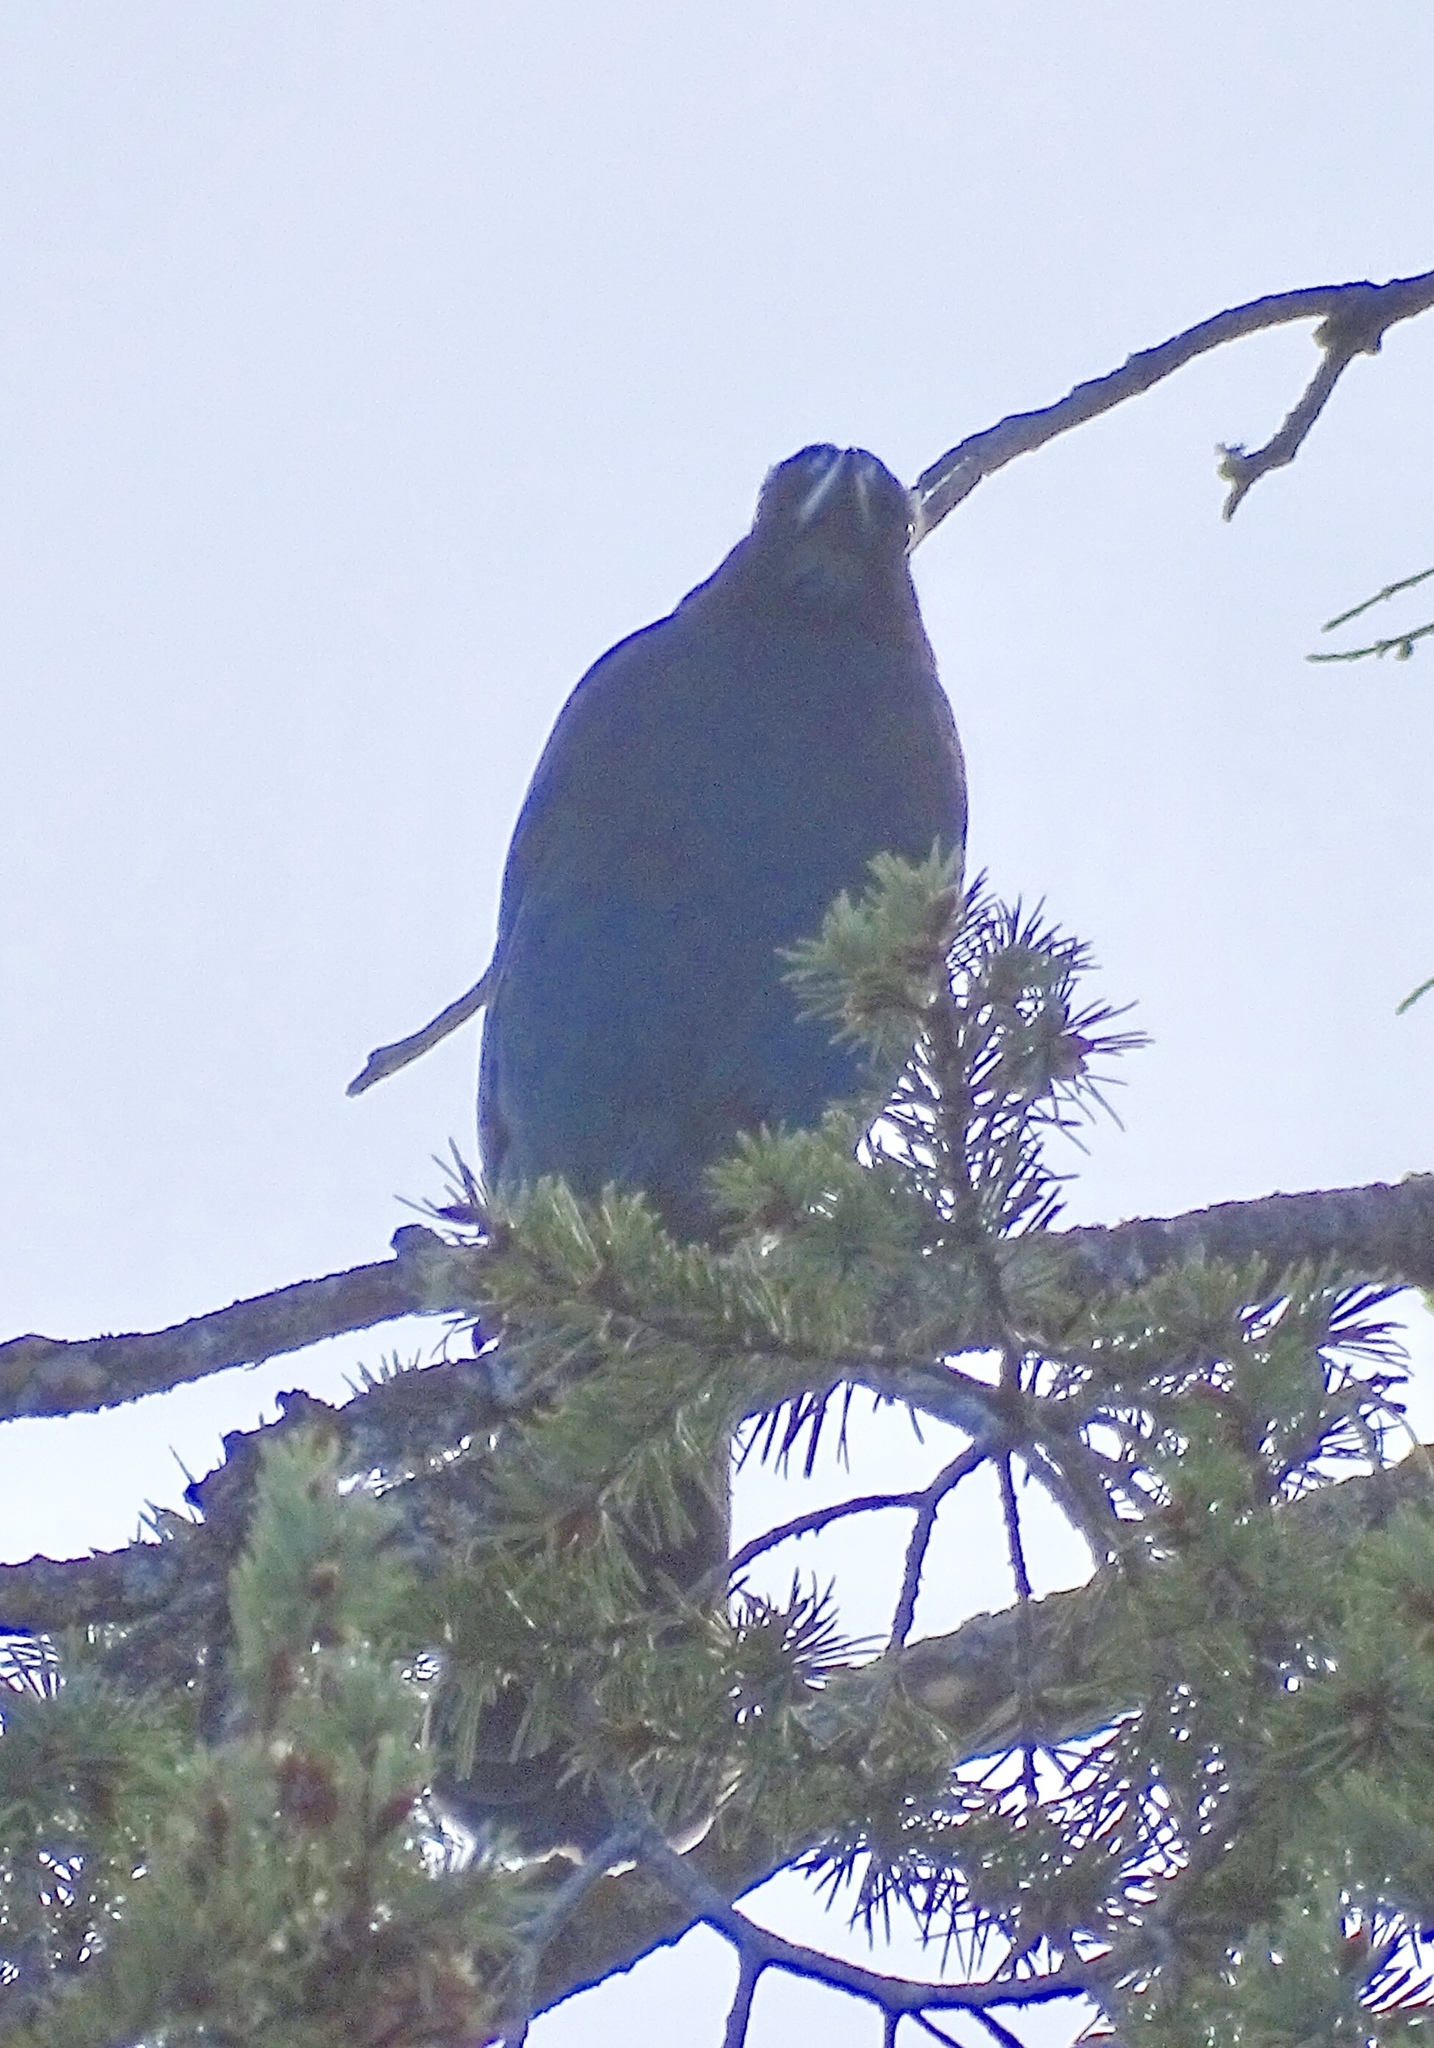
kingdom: Animalia
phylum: Chordata
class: Aves
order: Passeriformes
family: Corvidae
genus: Cyanocitta
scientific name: Cyanocitta stelleri
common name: Steller's jay
